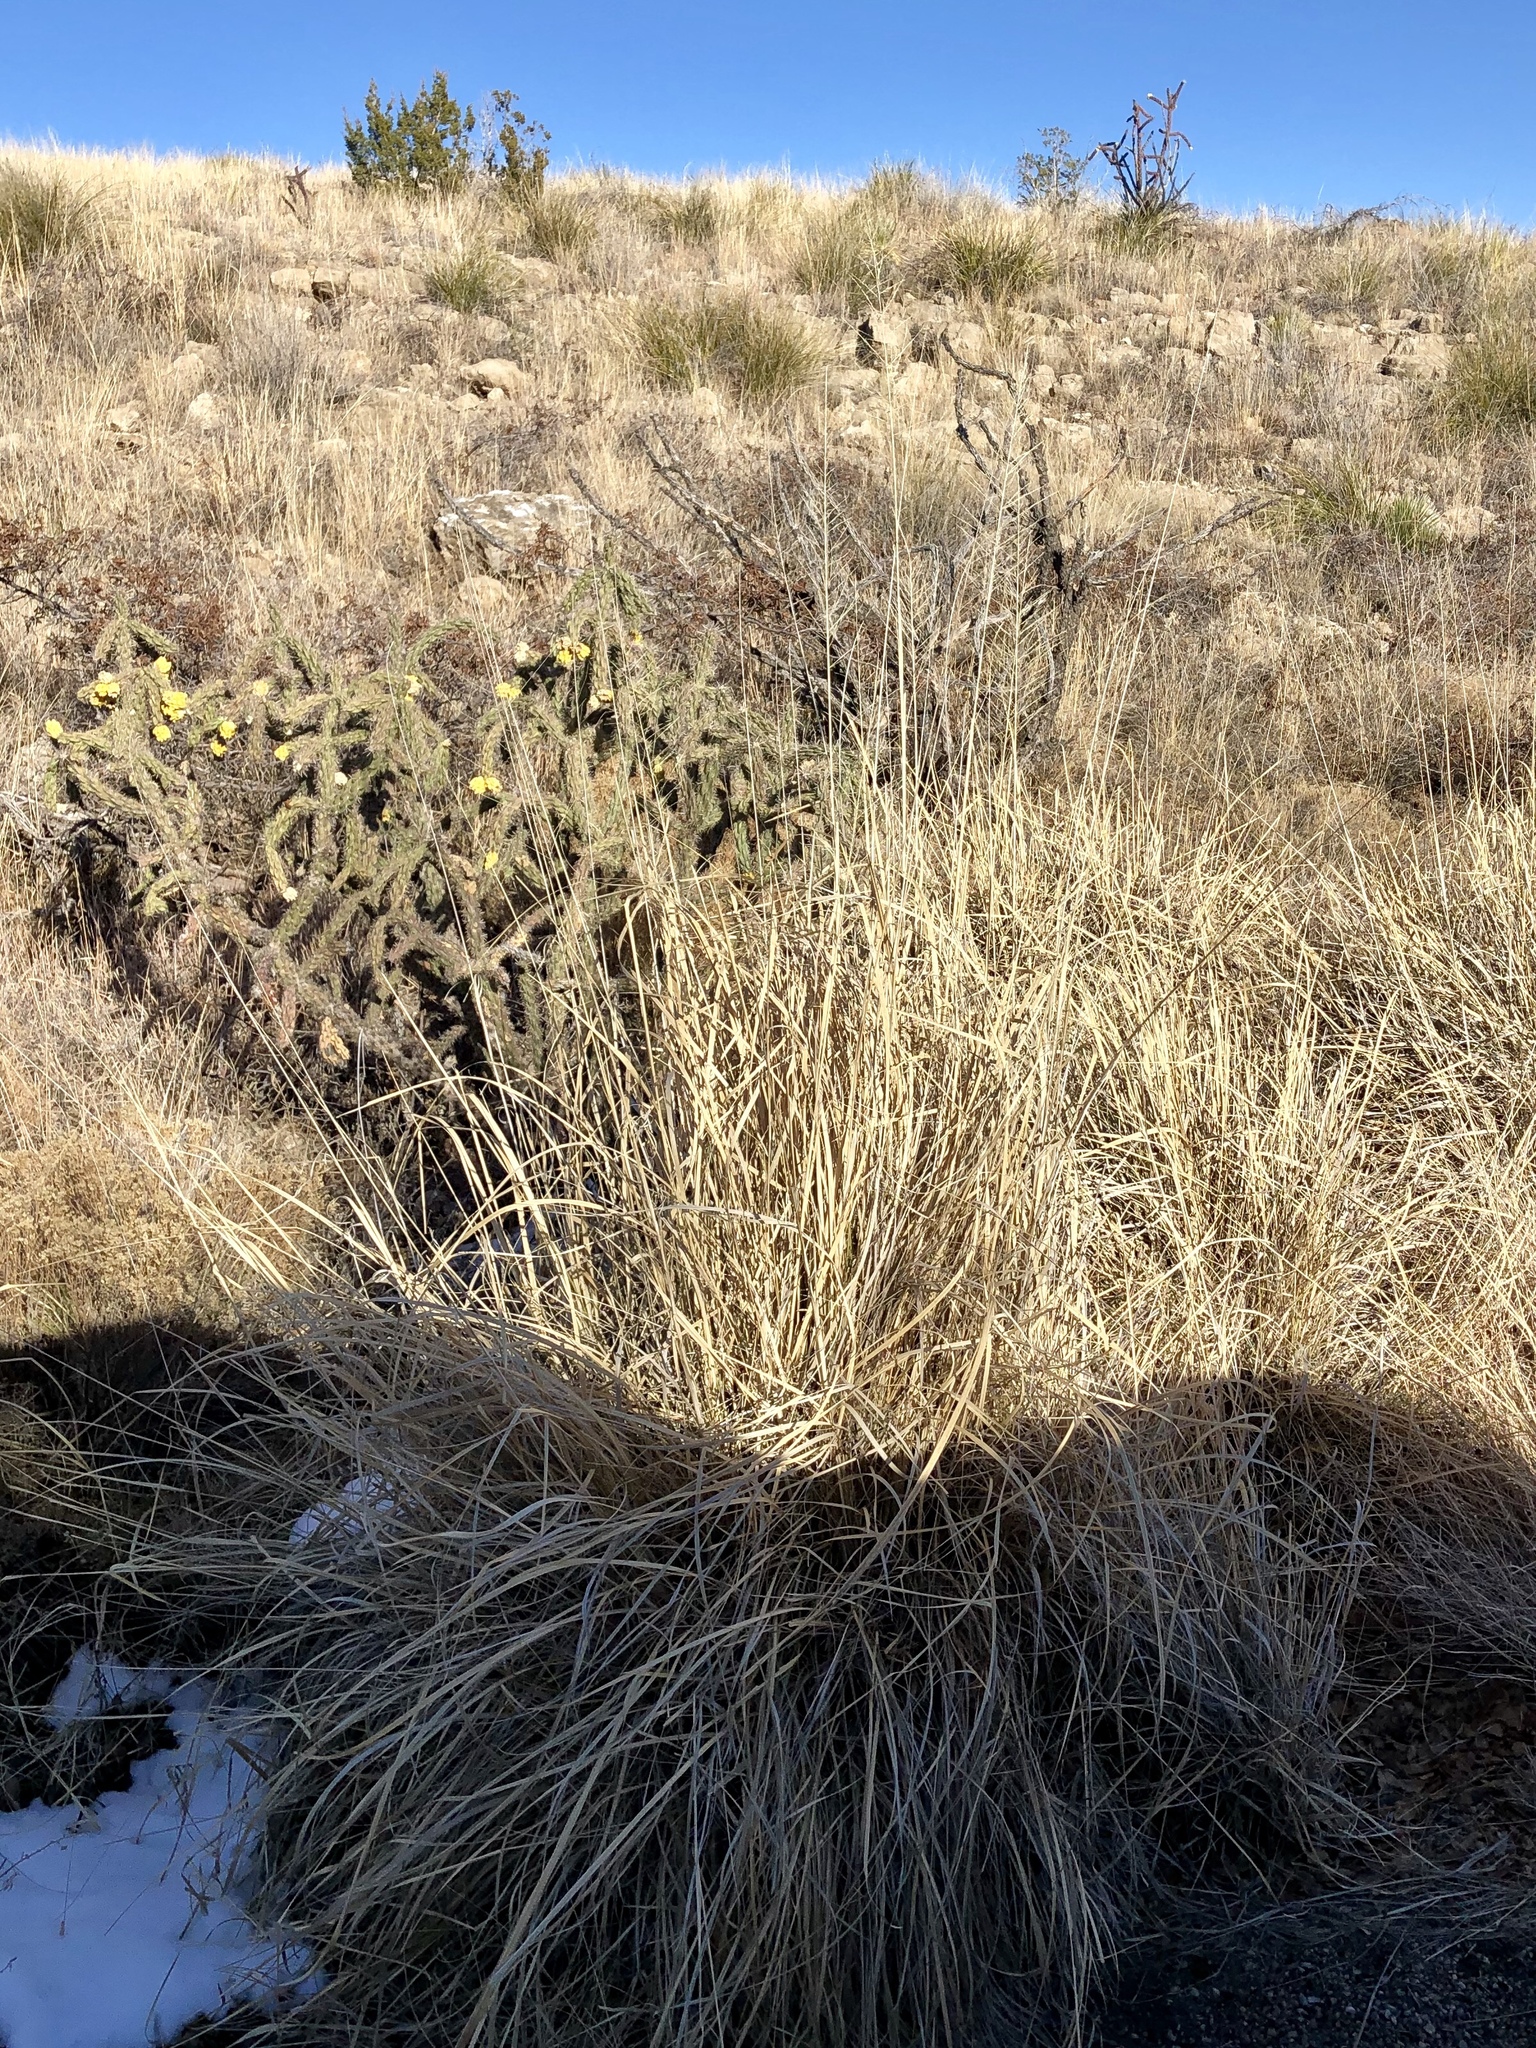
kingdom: Plantae
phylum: Tracheophyta
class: Liliopsida
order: Poales
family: Poaceae
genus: Sporobolus
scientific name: Sporobolus wrightii
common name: Big alkali sacaton
